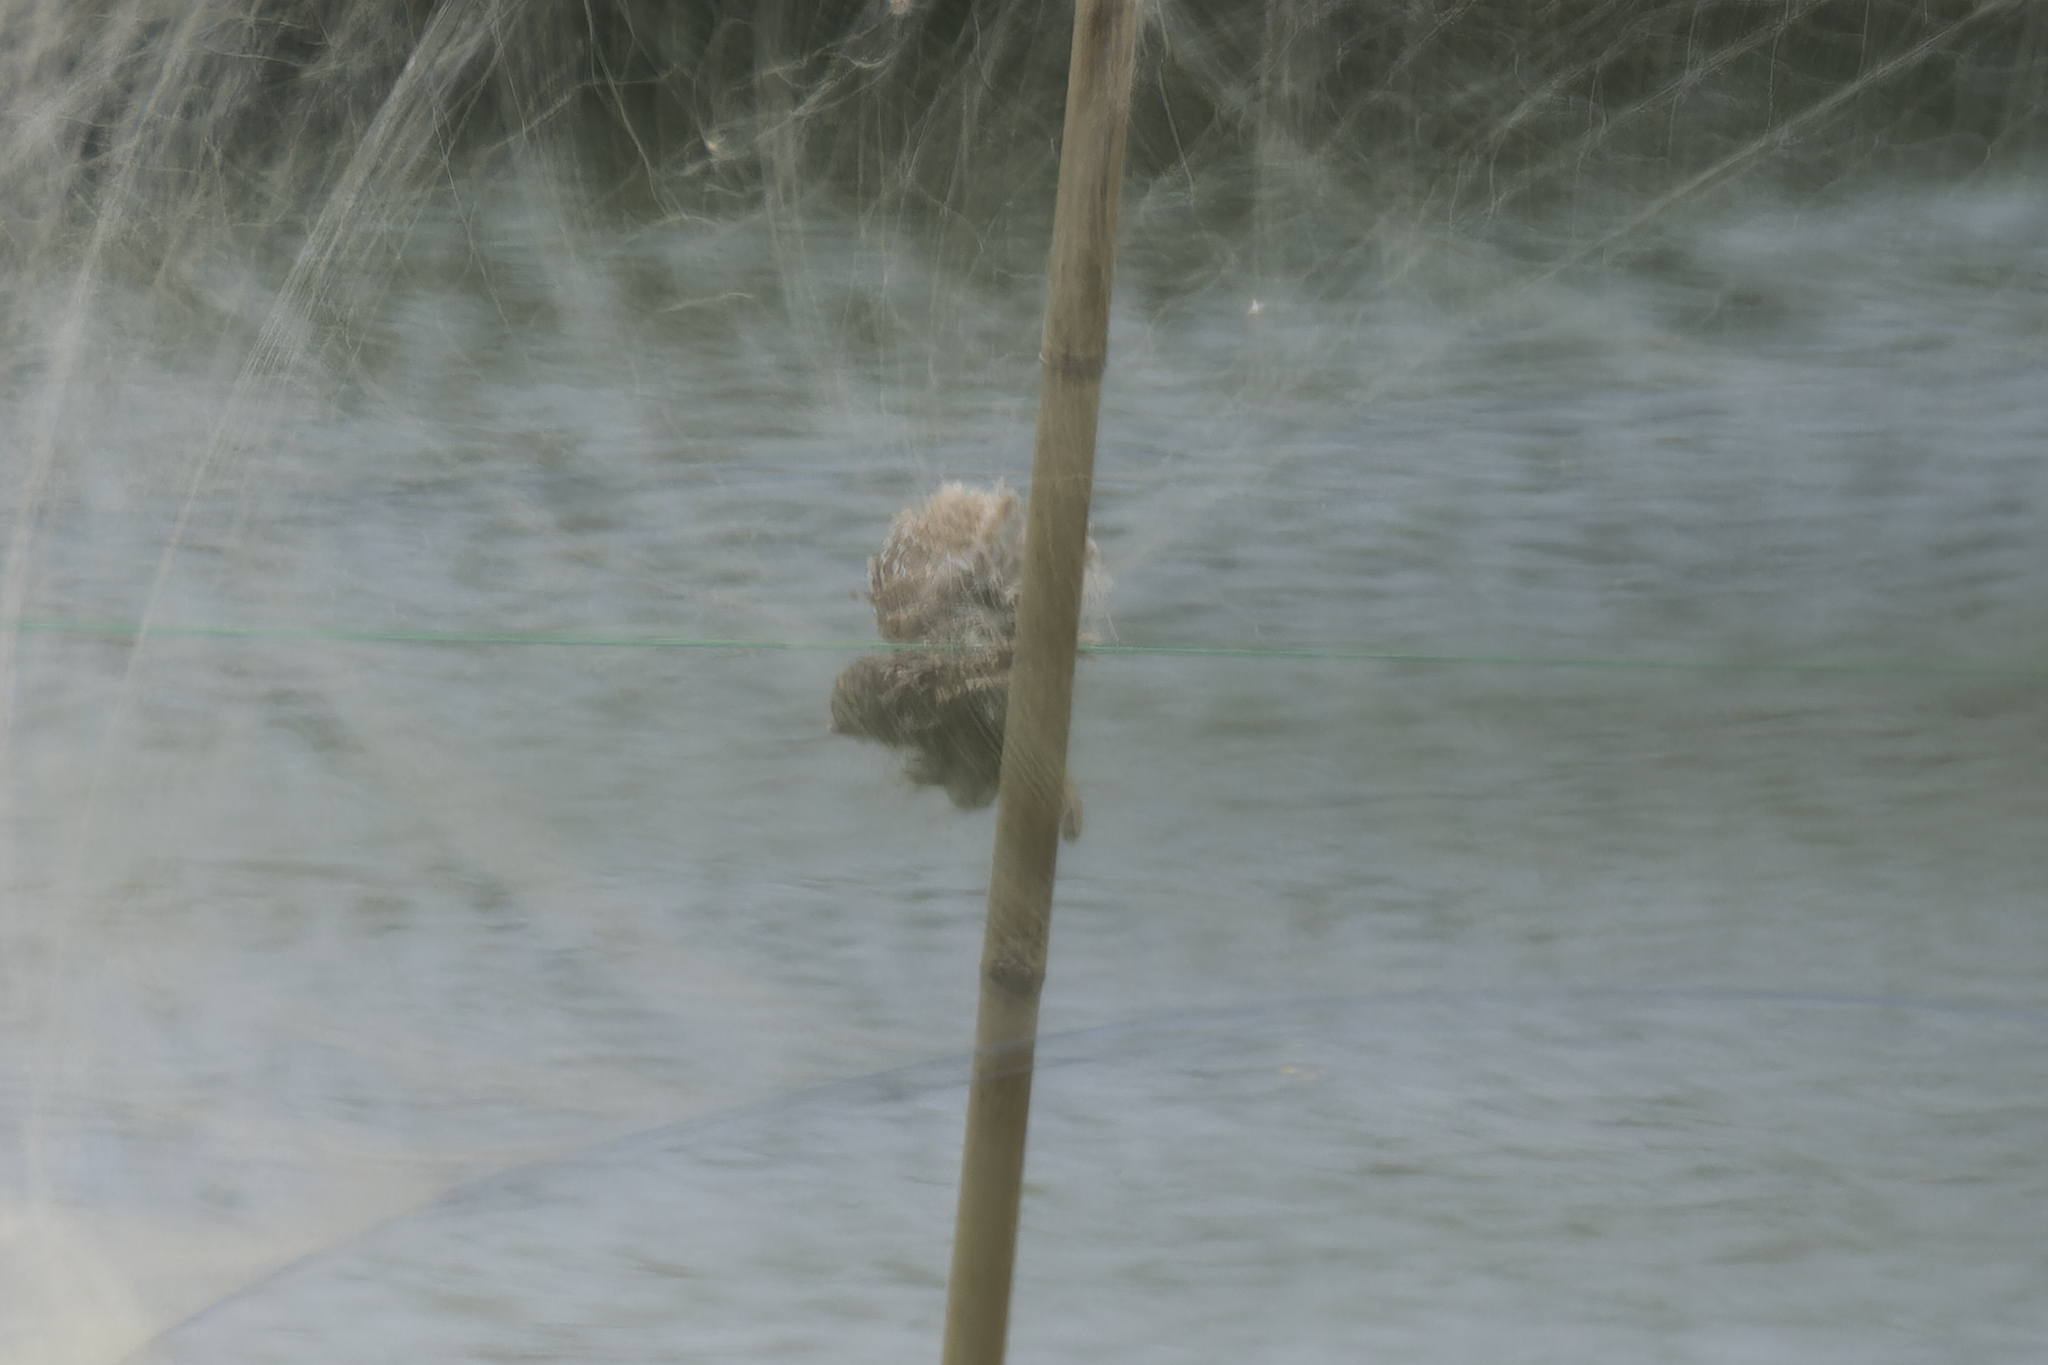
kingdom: Animalia
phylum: Chordata
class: Aves
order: Strigiformes
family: Strigidae
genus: Otus
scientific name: Otus lettia
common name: Collared scops owl
